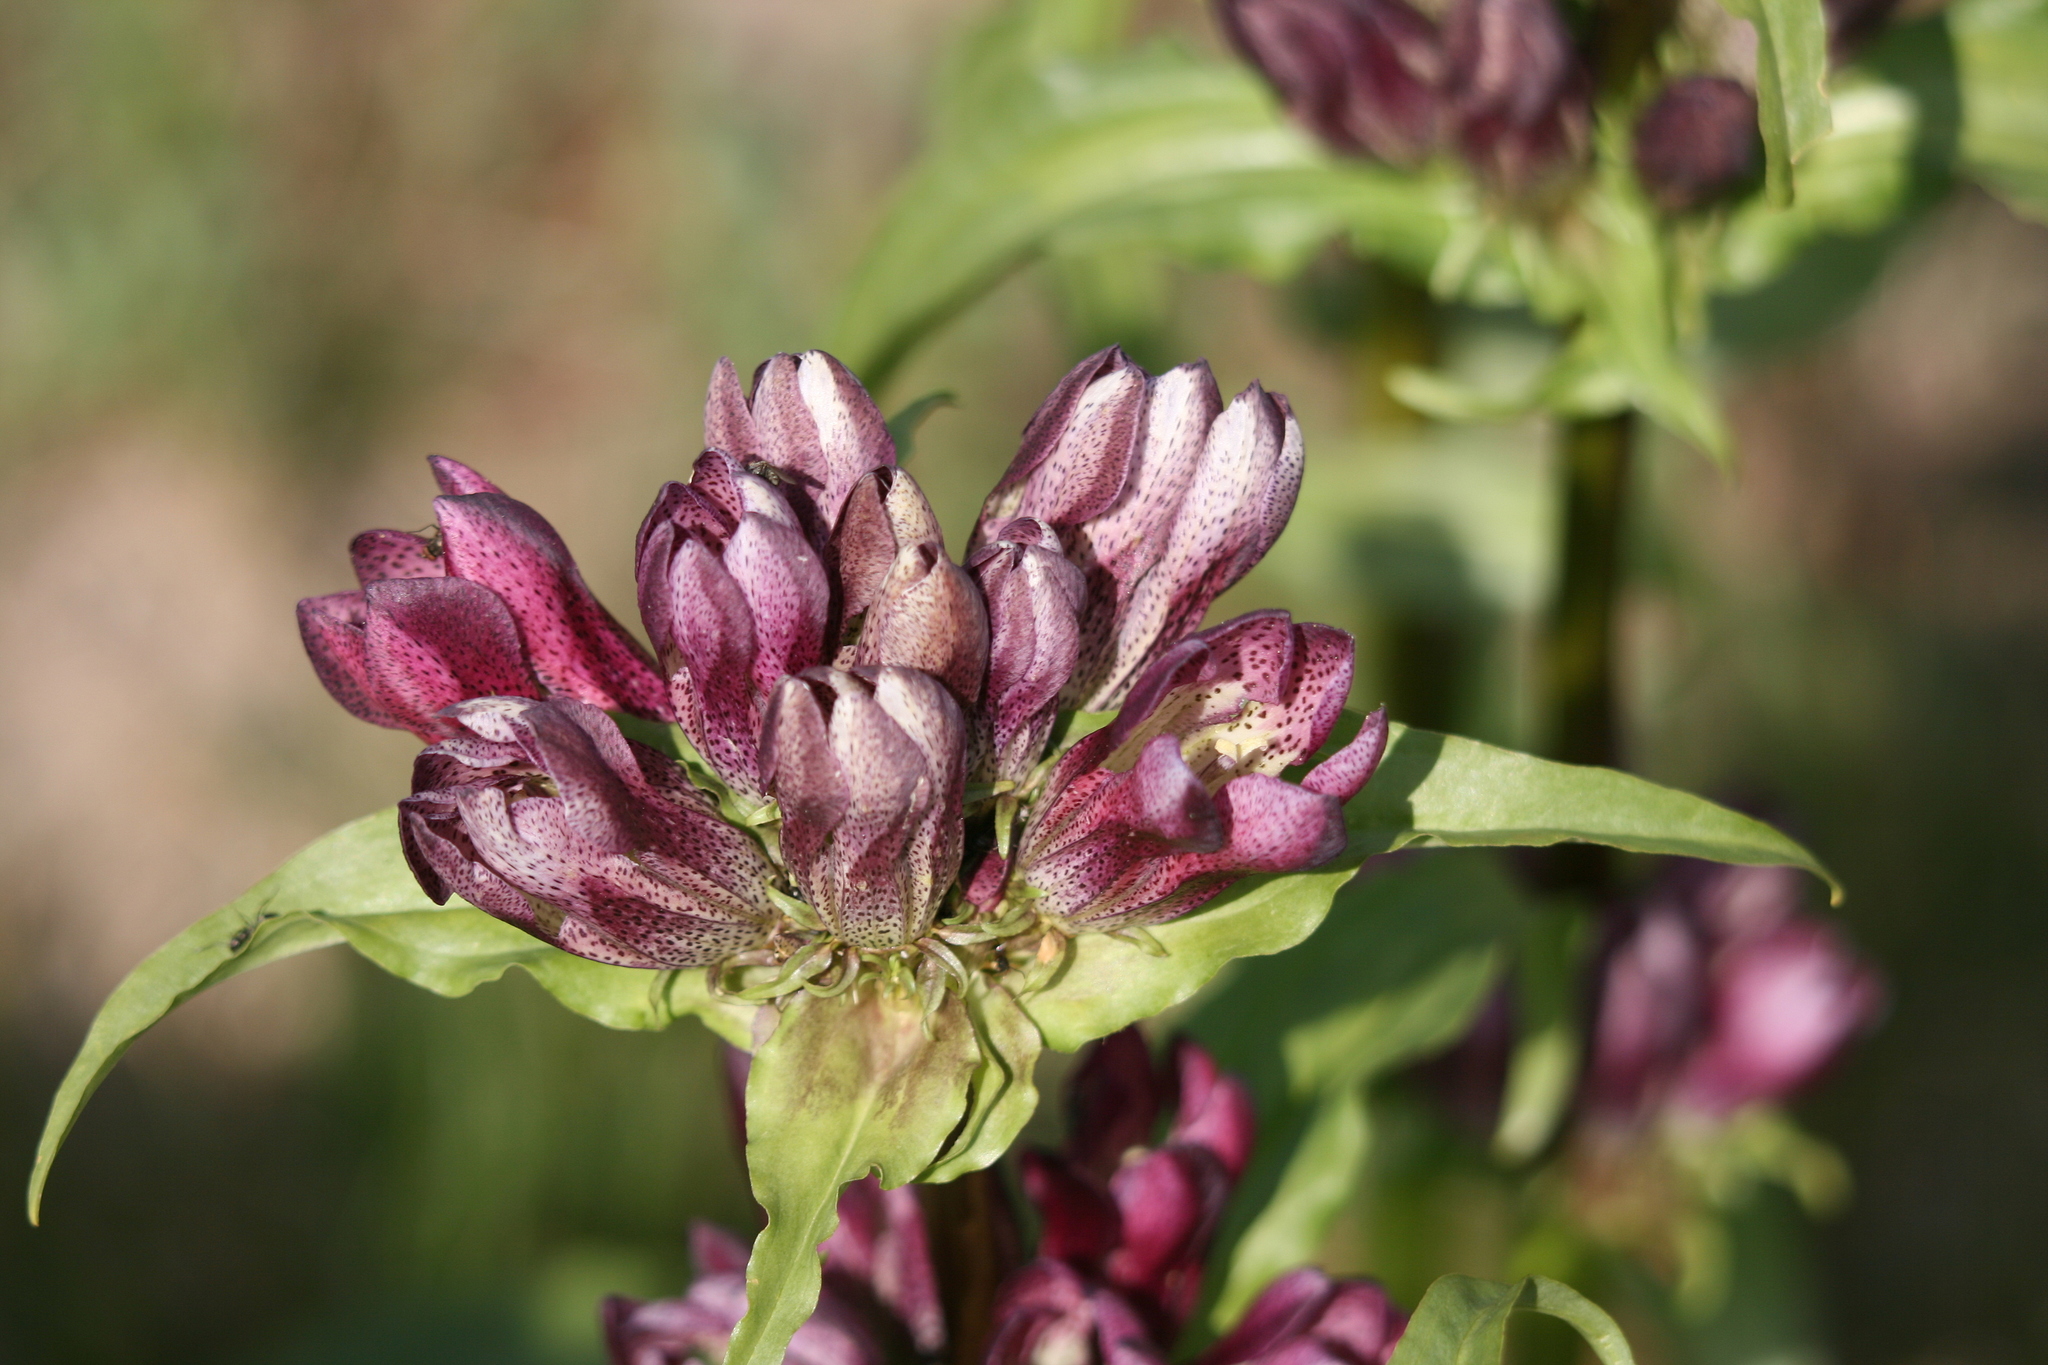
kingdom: Plantae
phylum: Tracheophyta
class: Magnoliopsida
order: Gentianales
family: Gentianaceae
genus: Gentiana
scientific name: Gentiana pannonica
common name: Hungarian gentian
